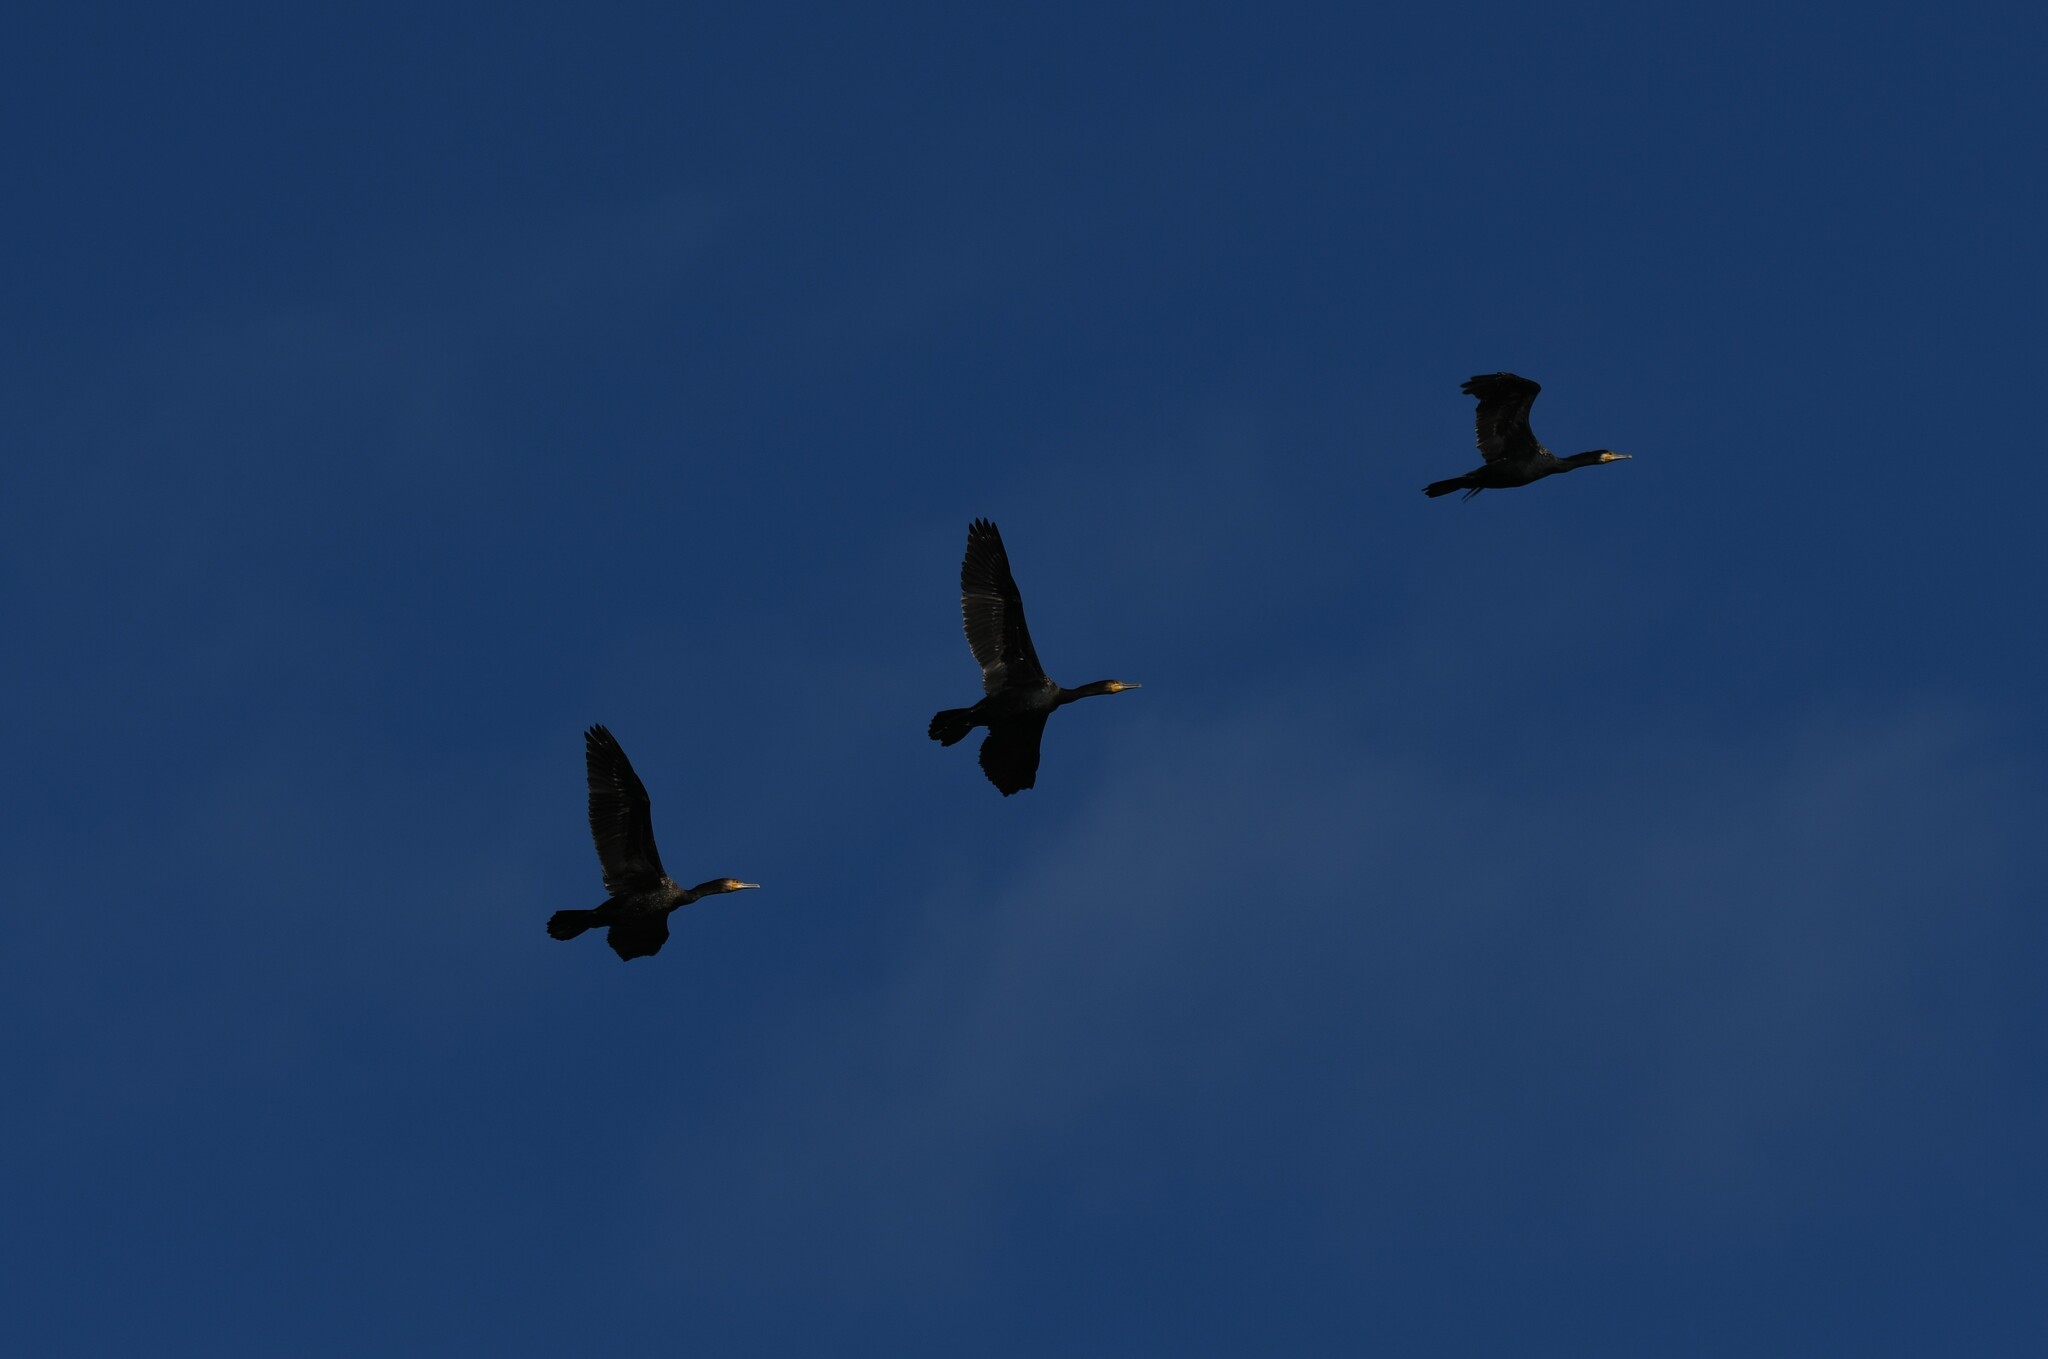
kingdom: Animalia
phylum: Chordata
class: Aves
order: Suliformes
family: Phalacrocoracidae
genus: Phalacrocorax
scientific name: Phalacrocorax carbo
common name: Great cormorant
